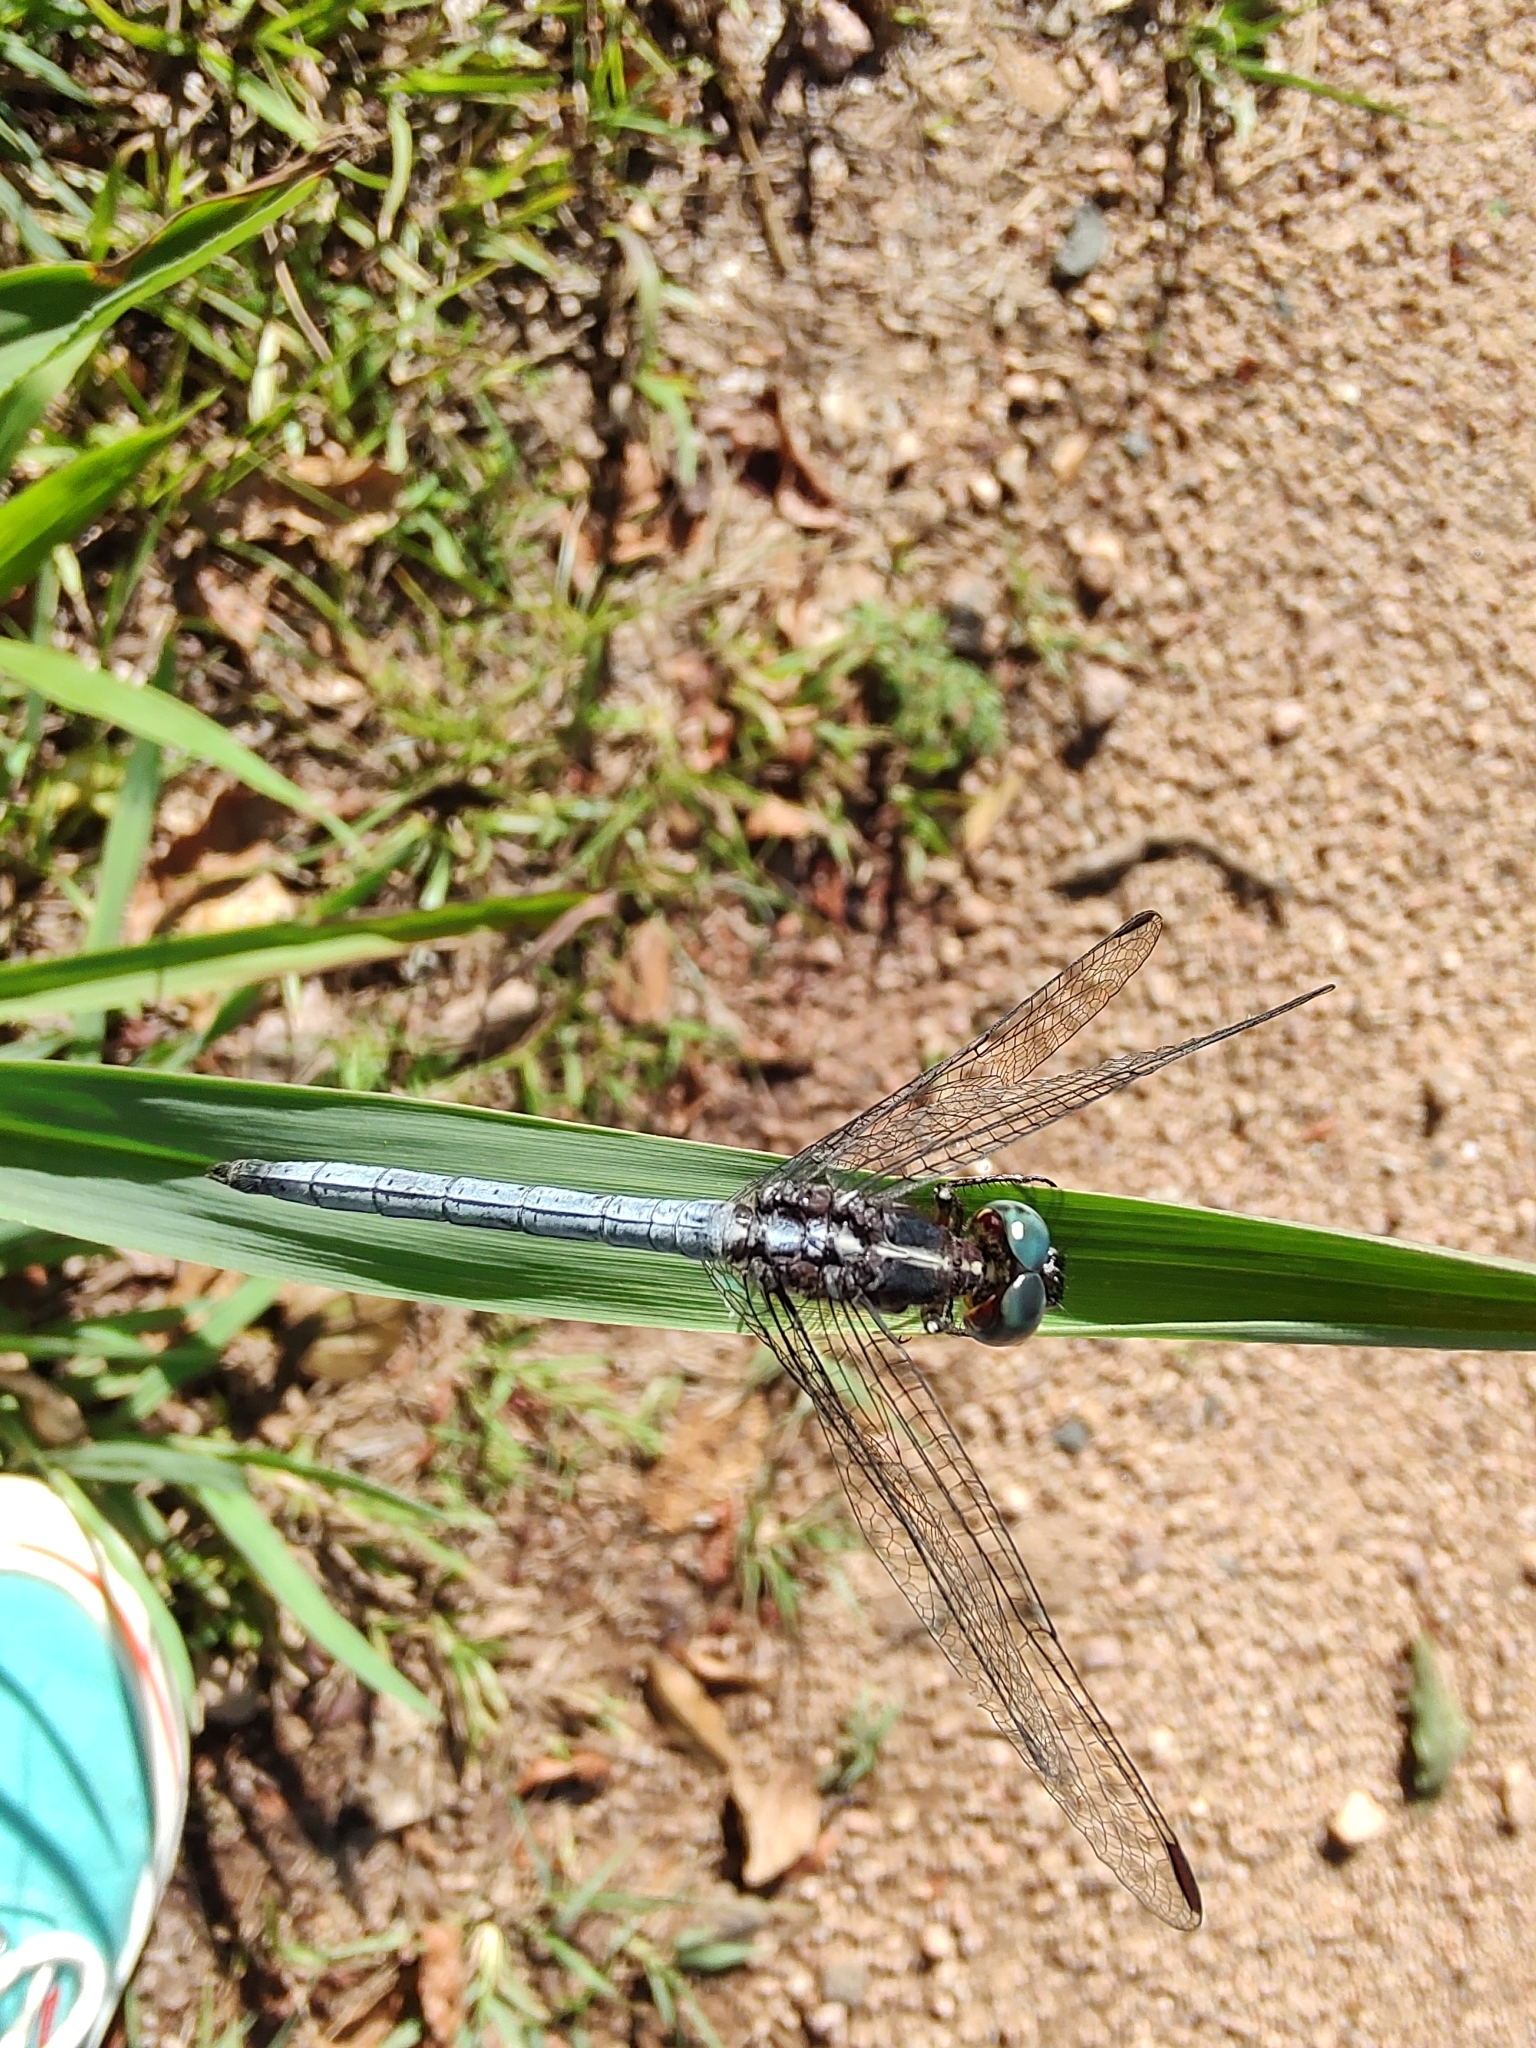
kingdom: Animalia
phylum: Arthropoda
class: Insecta
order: Odonata
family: Libellulidae
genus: Dasythemis
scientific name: Dasythemis mincki
